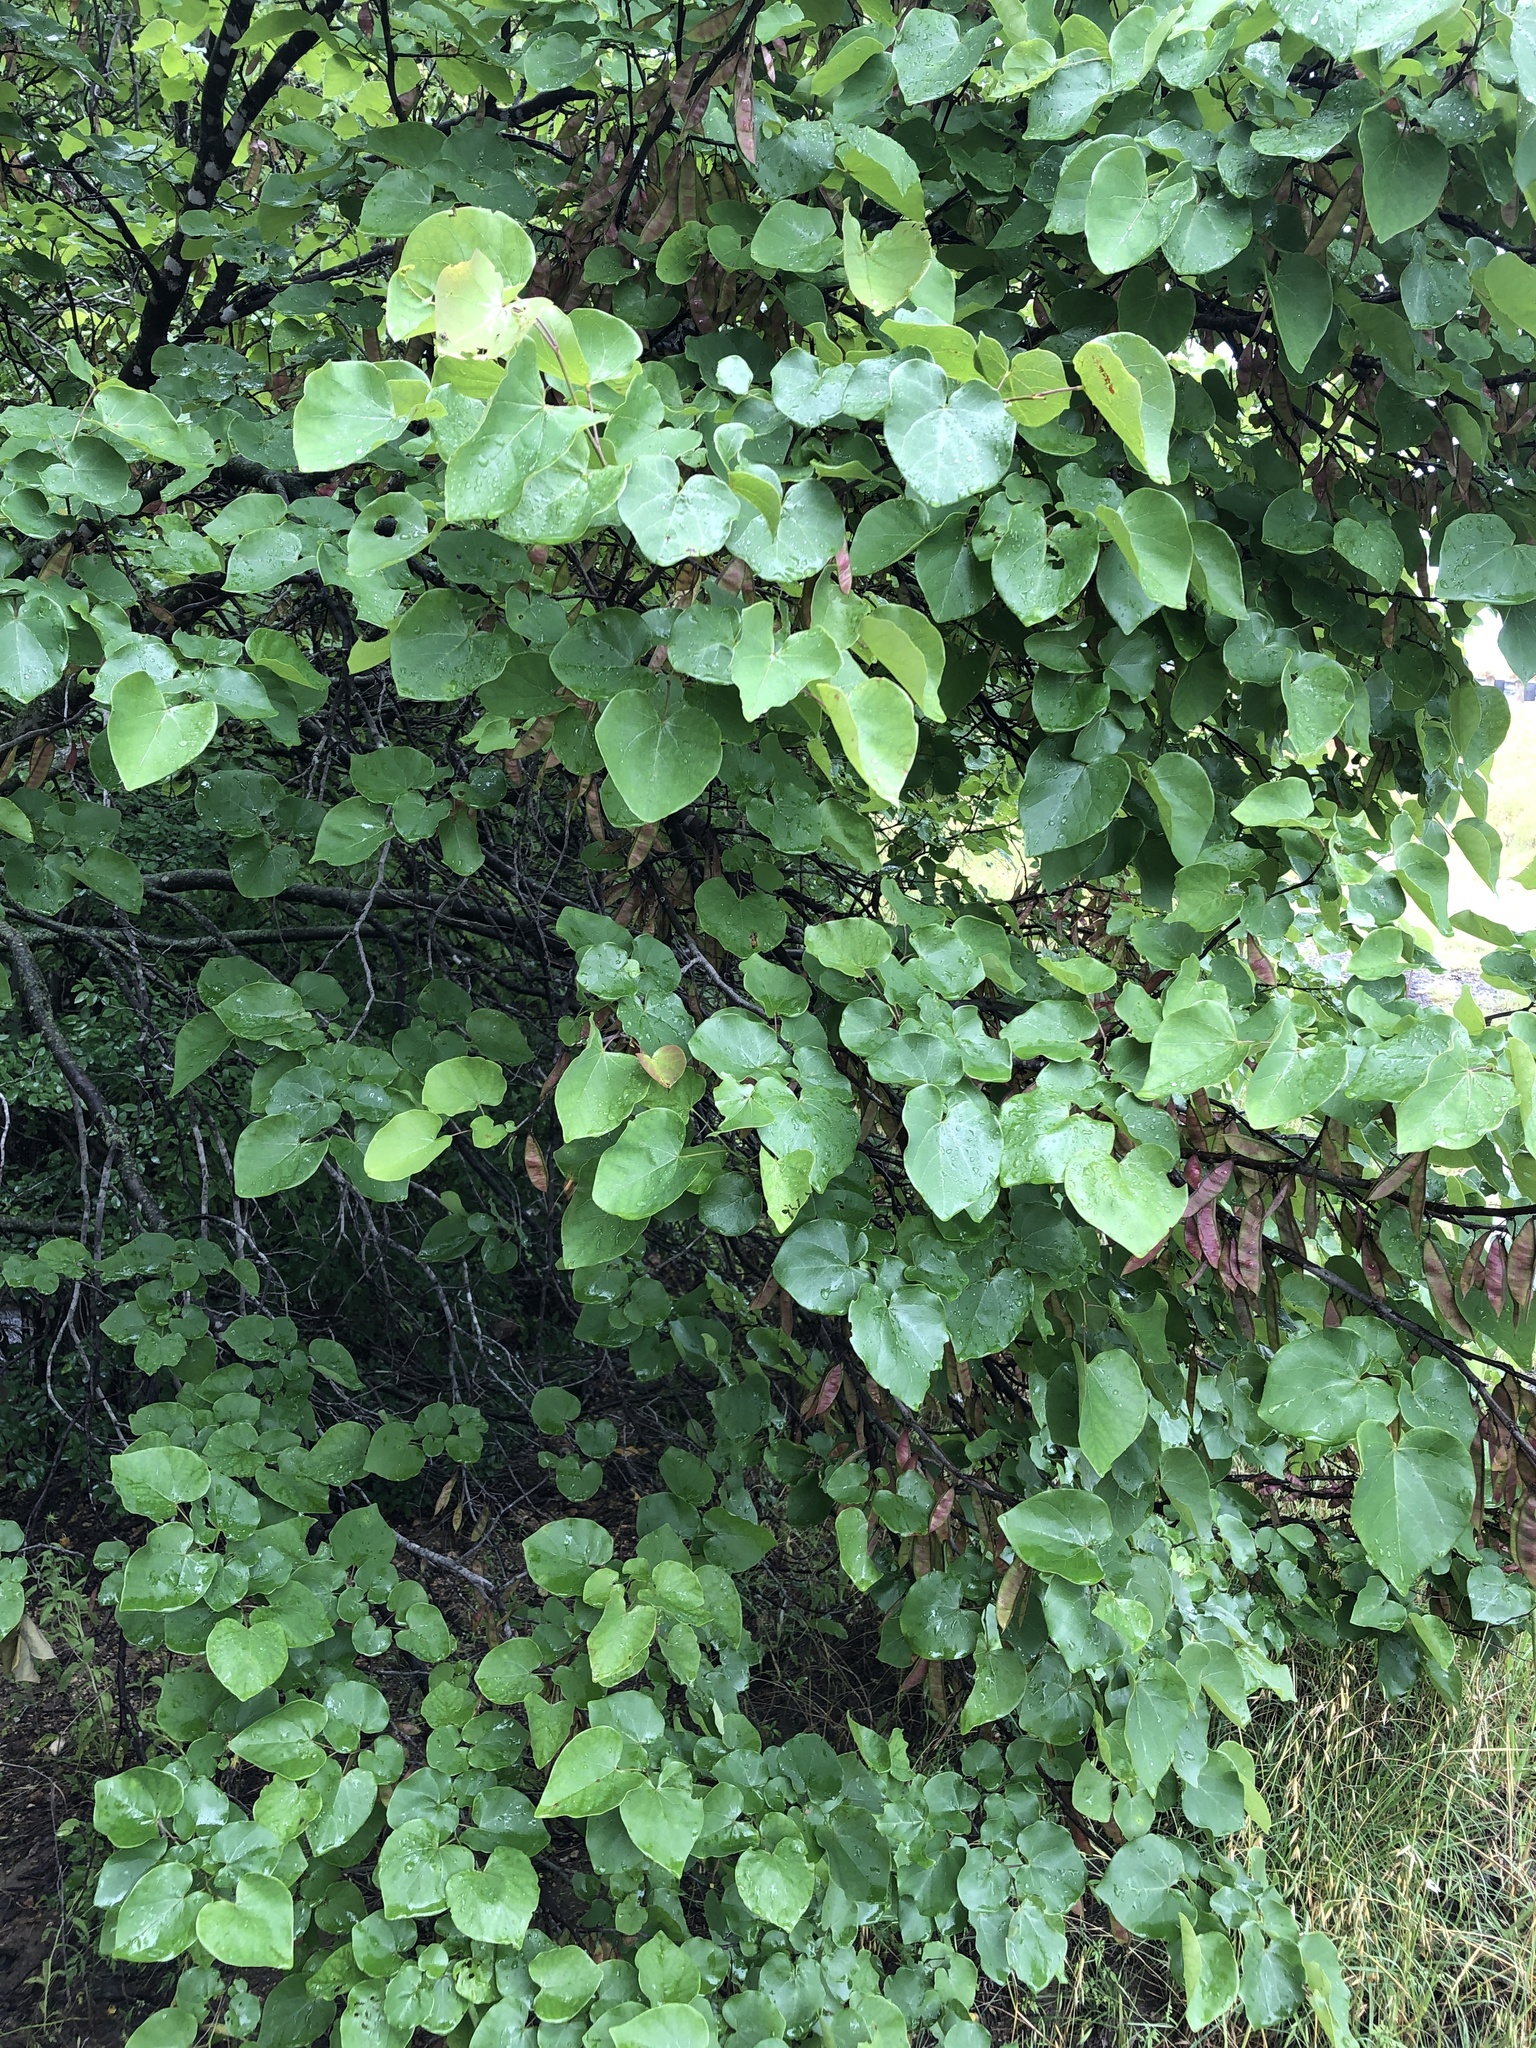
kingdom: Plantae
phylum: Tracheophyta
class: Magnoliopsida
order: Fabales
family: Fabaceae
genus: Cercis
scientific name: Cercis canadensis
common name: Eastern redbud
